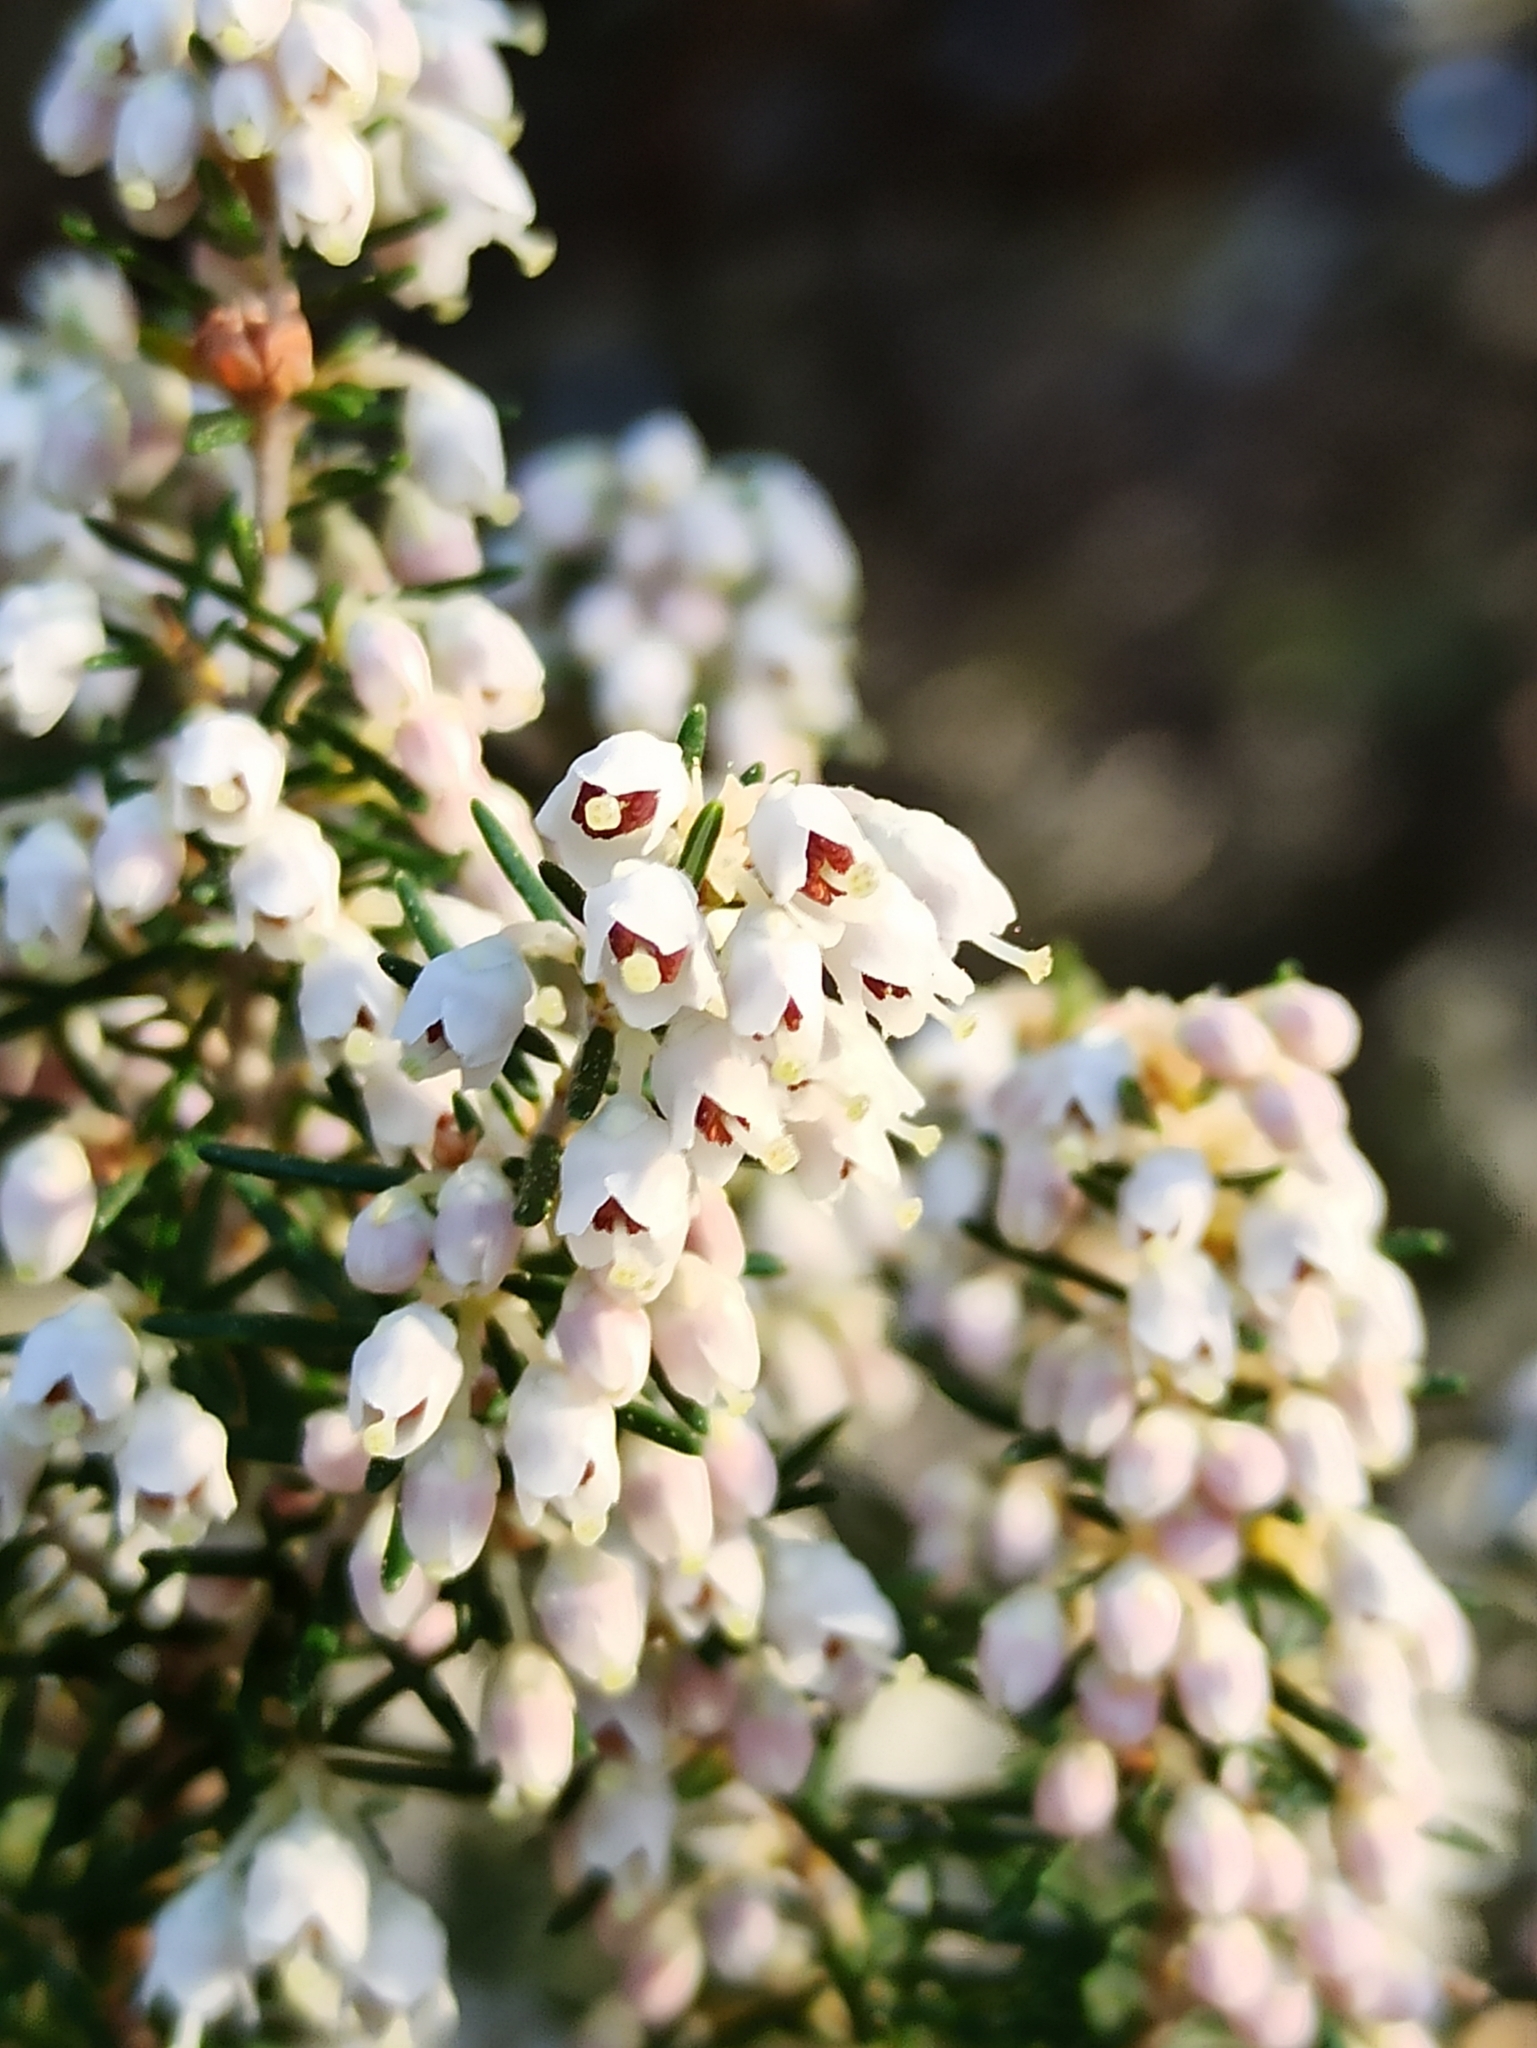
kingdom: Plantae
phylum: Tracheophyta
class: Magnoliopsida
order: Ericales
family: Ericaceae
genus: Erica
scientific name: Erica arborea
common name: Tree heath
